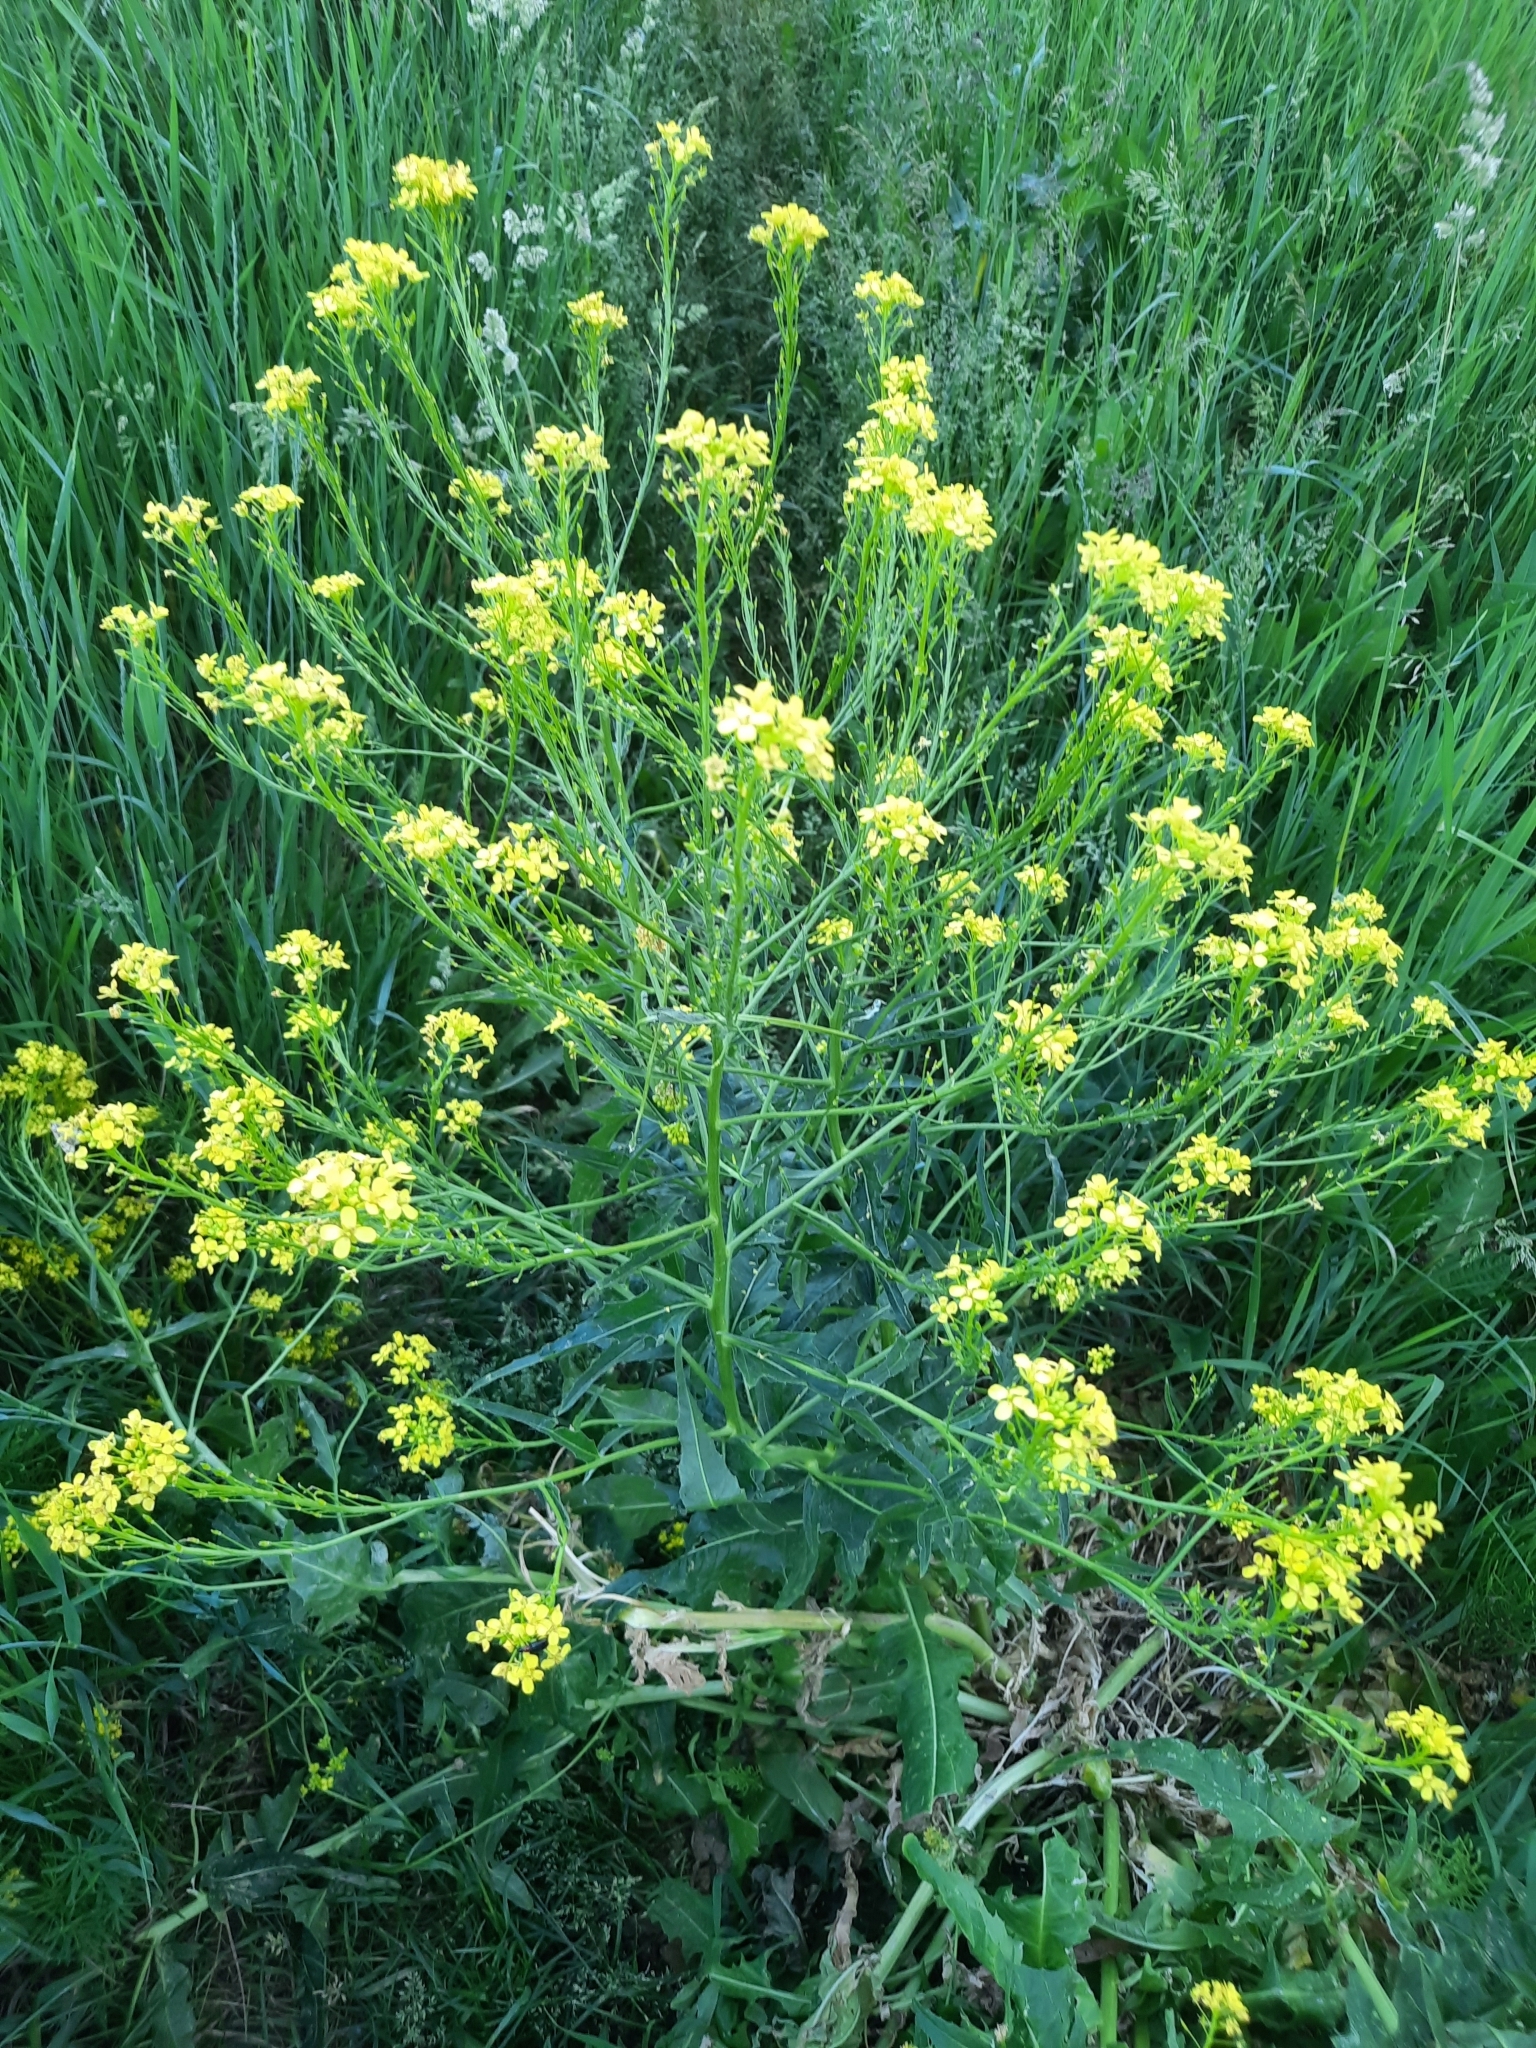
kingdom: Plantae
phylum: Tracheophyta
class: Magnoliopsida
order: Brassicales
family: Brassicaceae
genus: Bunias
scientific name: Bunias orientalis
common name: Warty-cabbage
